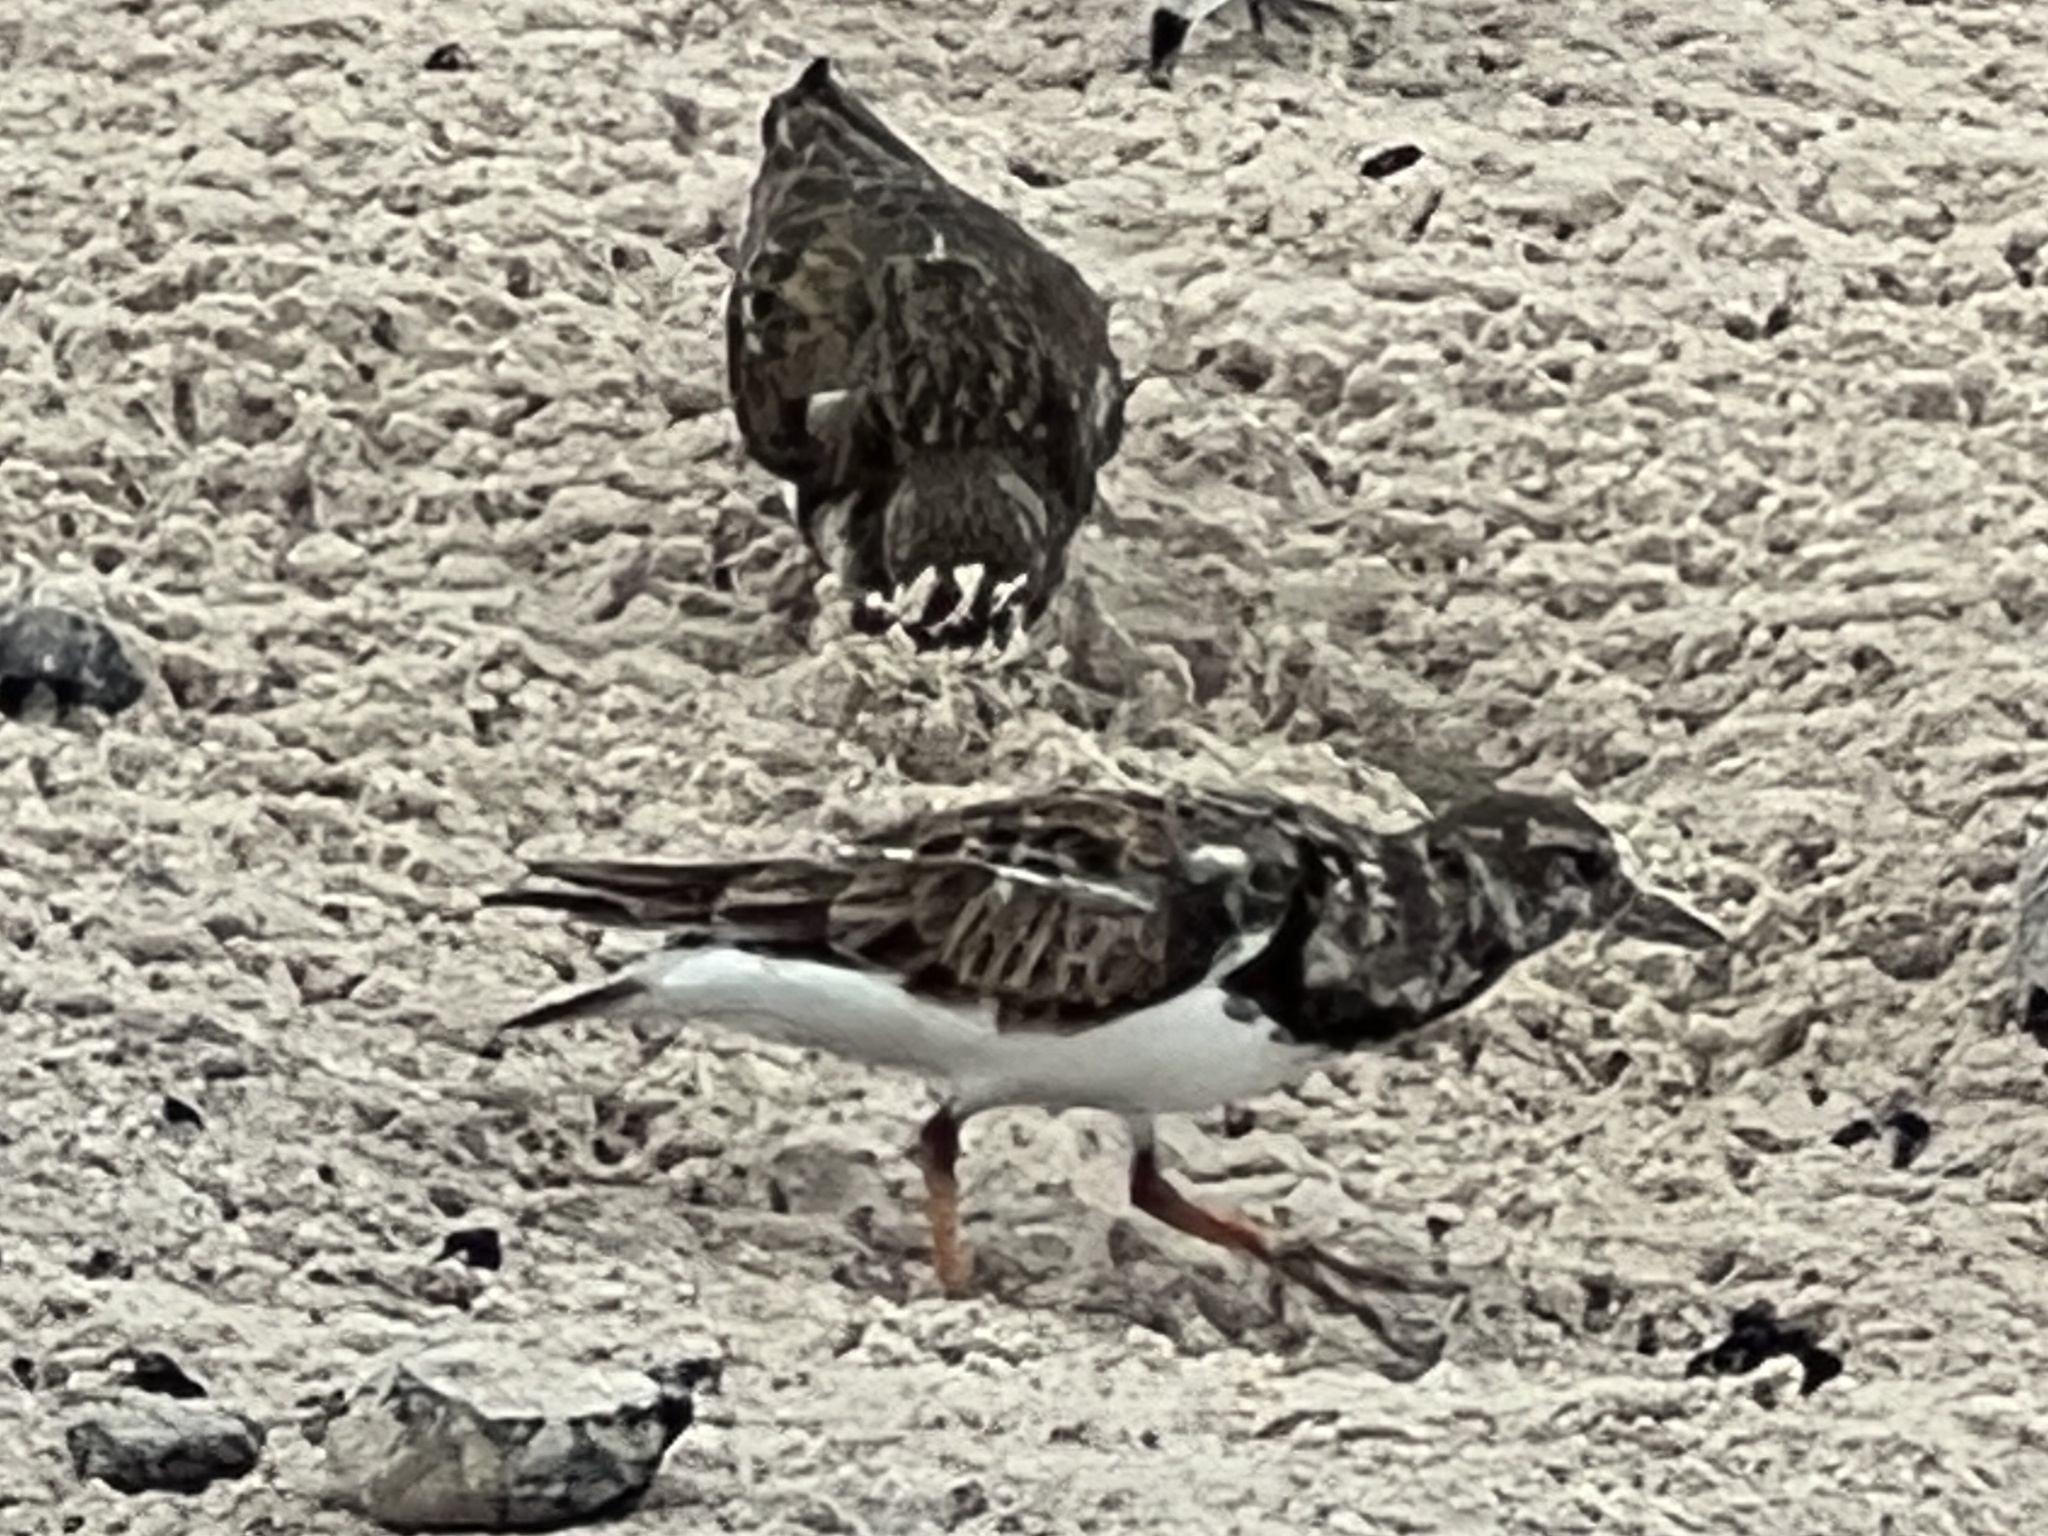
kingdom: Animalia
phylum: Chordata
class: Aves
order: Charadriiformes
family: Scolopacidae
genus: Arenaria
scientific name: Arenaria interpres
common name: Ruddy turnstone
